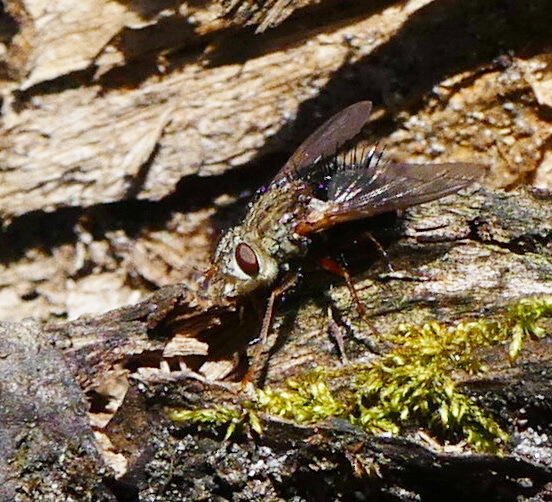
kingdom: Animalia
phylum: Arthropoda
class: Insecta
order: Diptera
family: Tachinidae
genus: Epalpus
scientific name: Epalpus signifer
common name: Early tachinid fly
